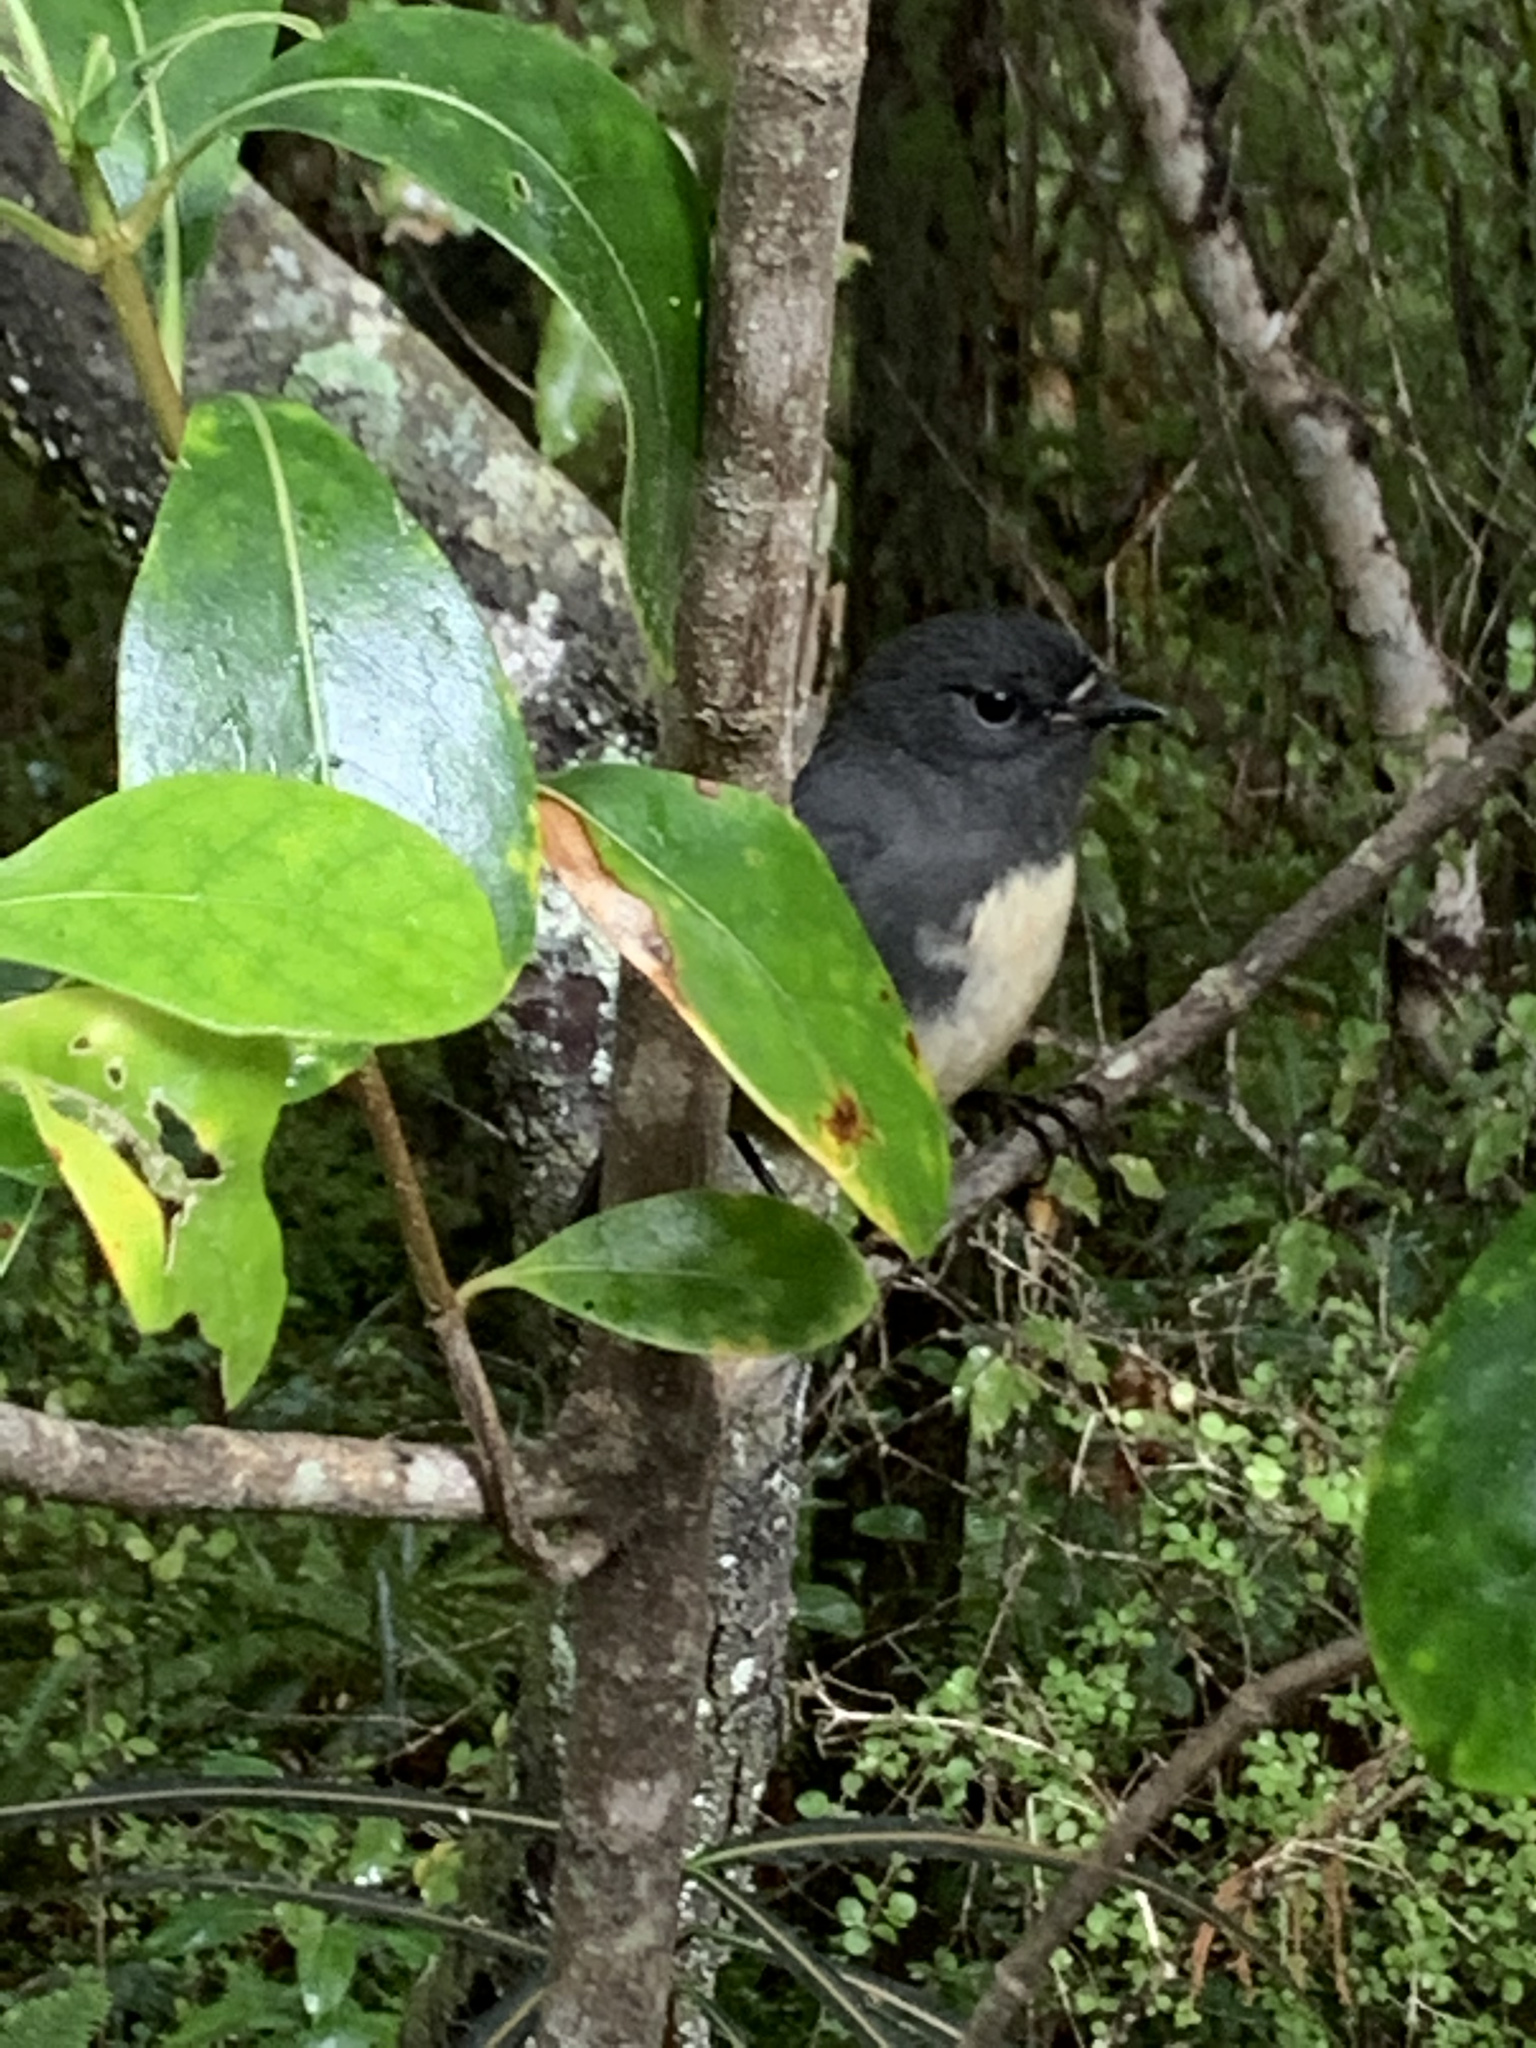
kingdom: Animalia
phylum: Chordata
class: Aves
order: Passeriformes
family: Petroicidae
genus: Petroica
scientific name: Petroica australis
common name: New zealand robin
